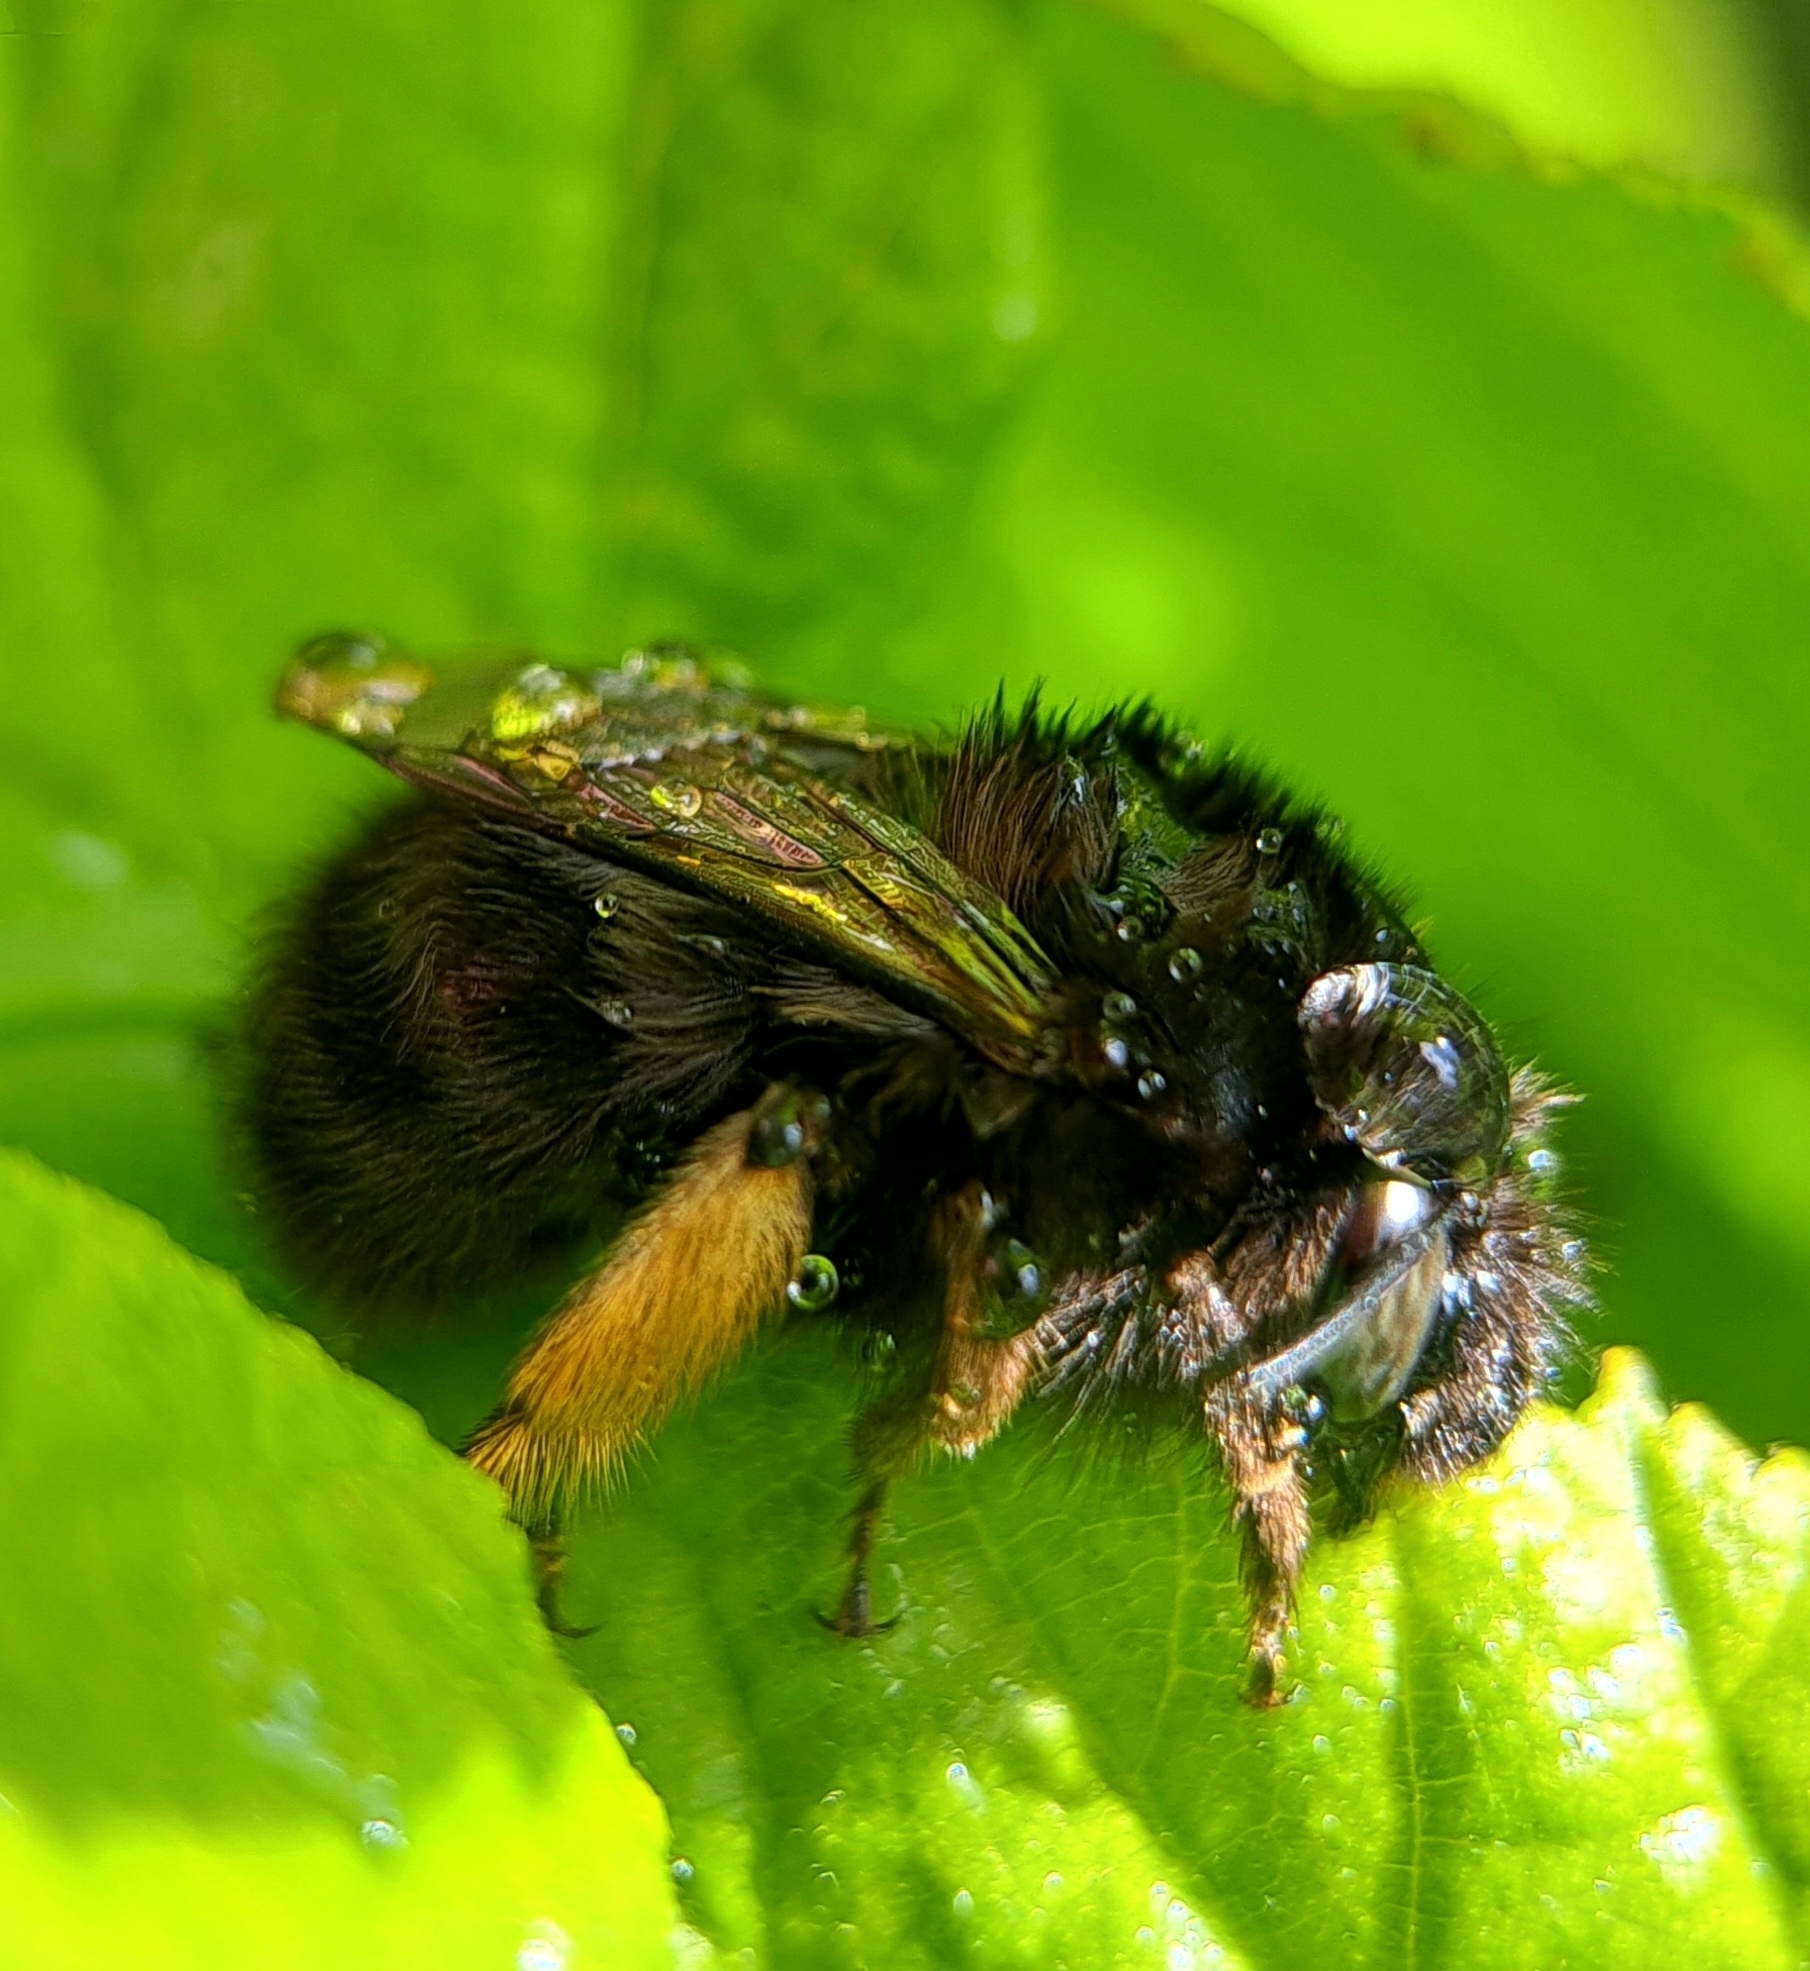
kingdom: Animalia
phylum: Arthropoda
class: Insecta
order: Hymenoptera
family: Apidae
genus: Anthophora
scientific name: Anthophora plumipes
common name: Hairy-footed flower bee
